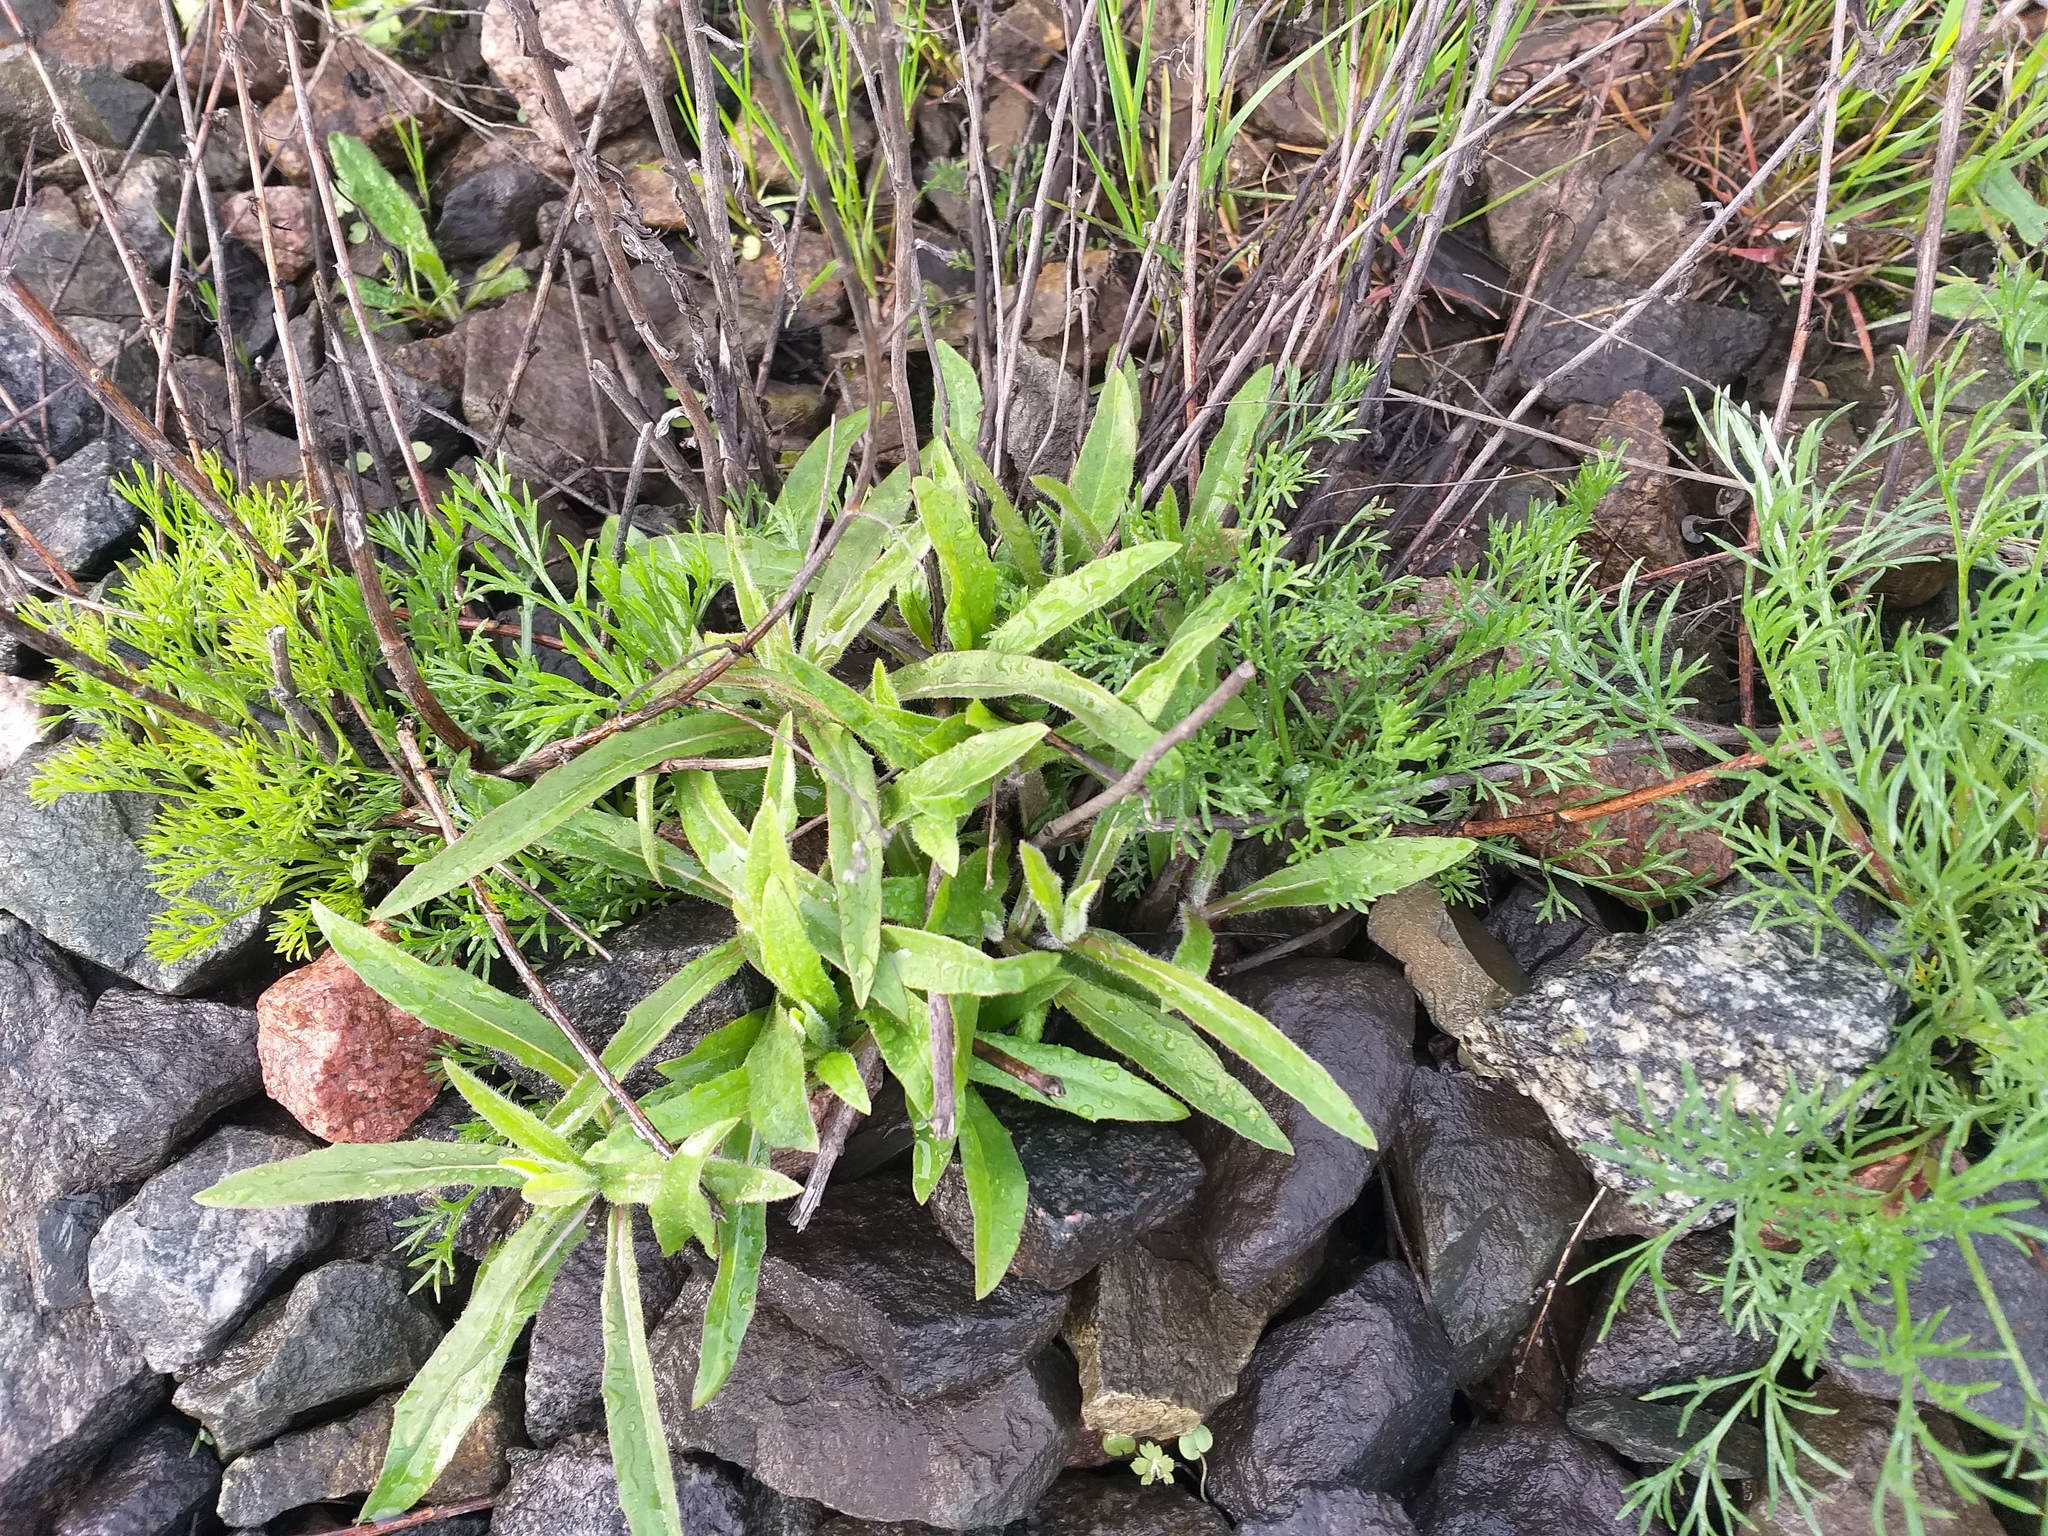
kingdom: Plantae
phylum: Tracheophyta
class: Magnoliopsida
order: Asterales
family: Asteraceae
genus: Hieracium
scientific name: Hieracium umbellatum
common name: Northern hawkweed
